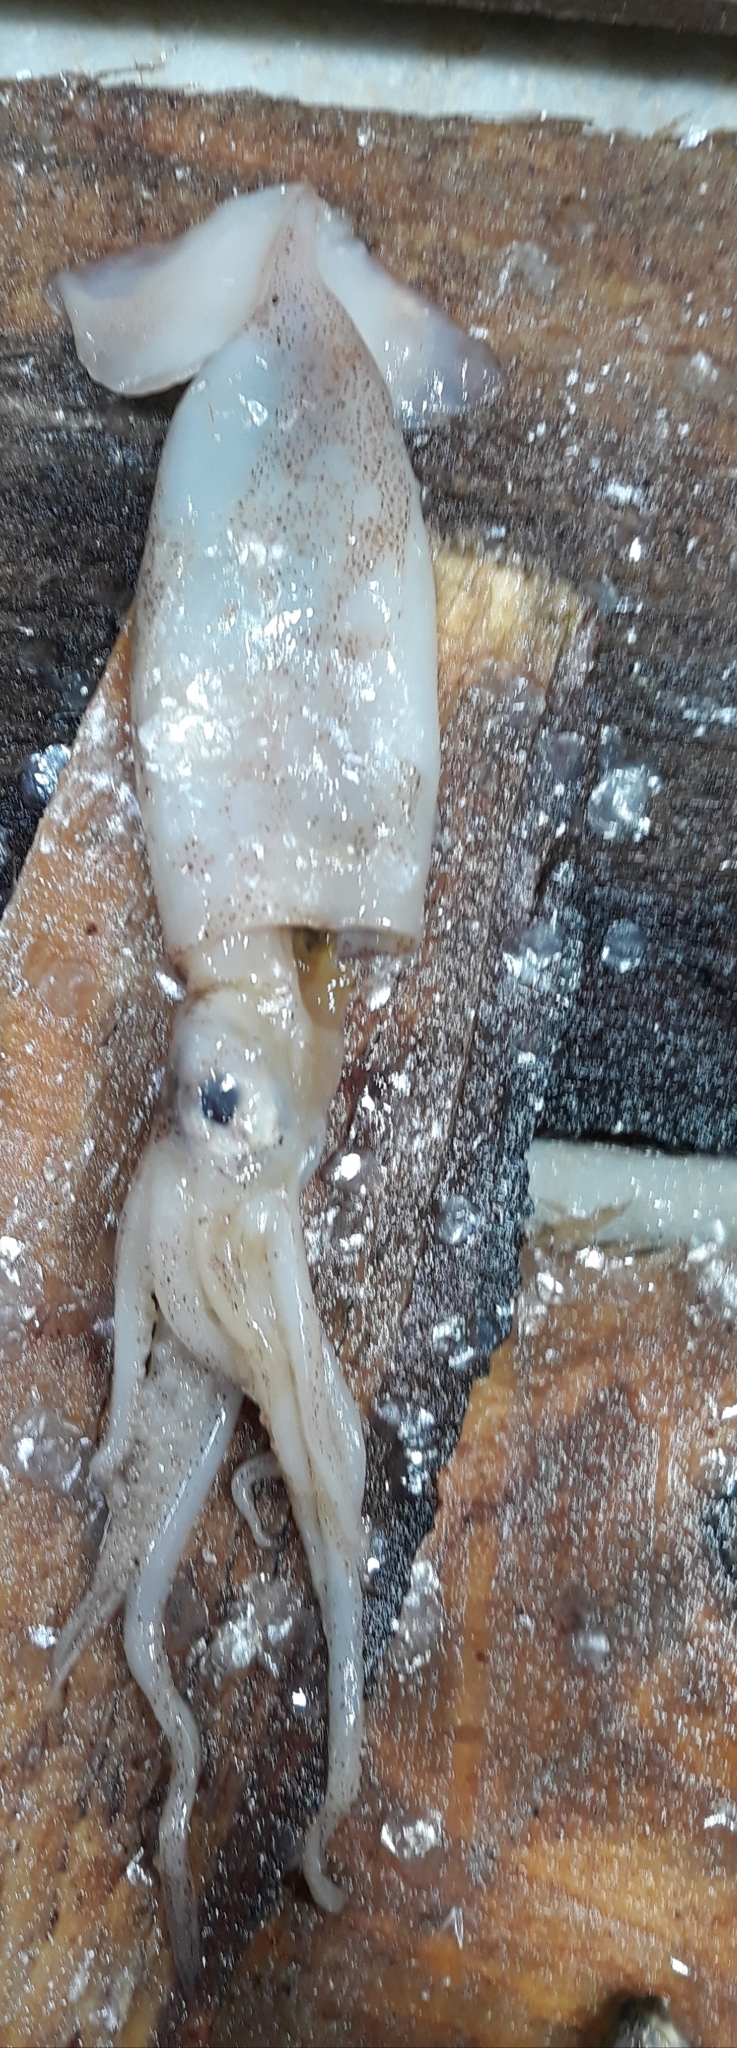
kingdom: Animalia
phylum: Mollusca
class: Cephalopoda
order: Oegopsida
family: Ommastrephidae
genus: Illex
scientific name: Illex coindetii
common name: Broadtail shortfin squid
